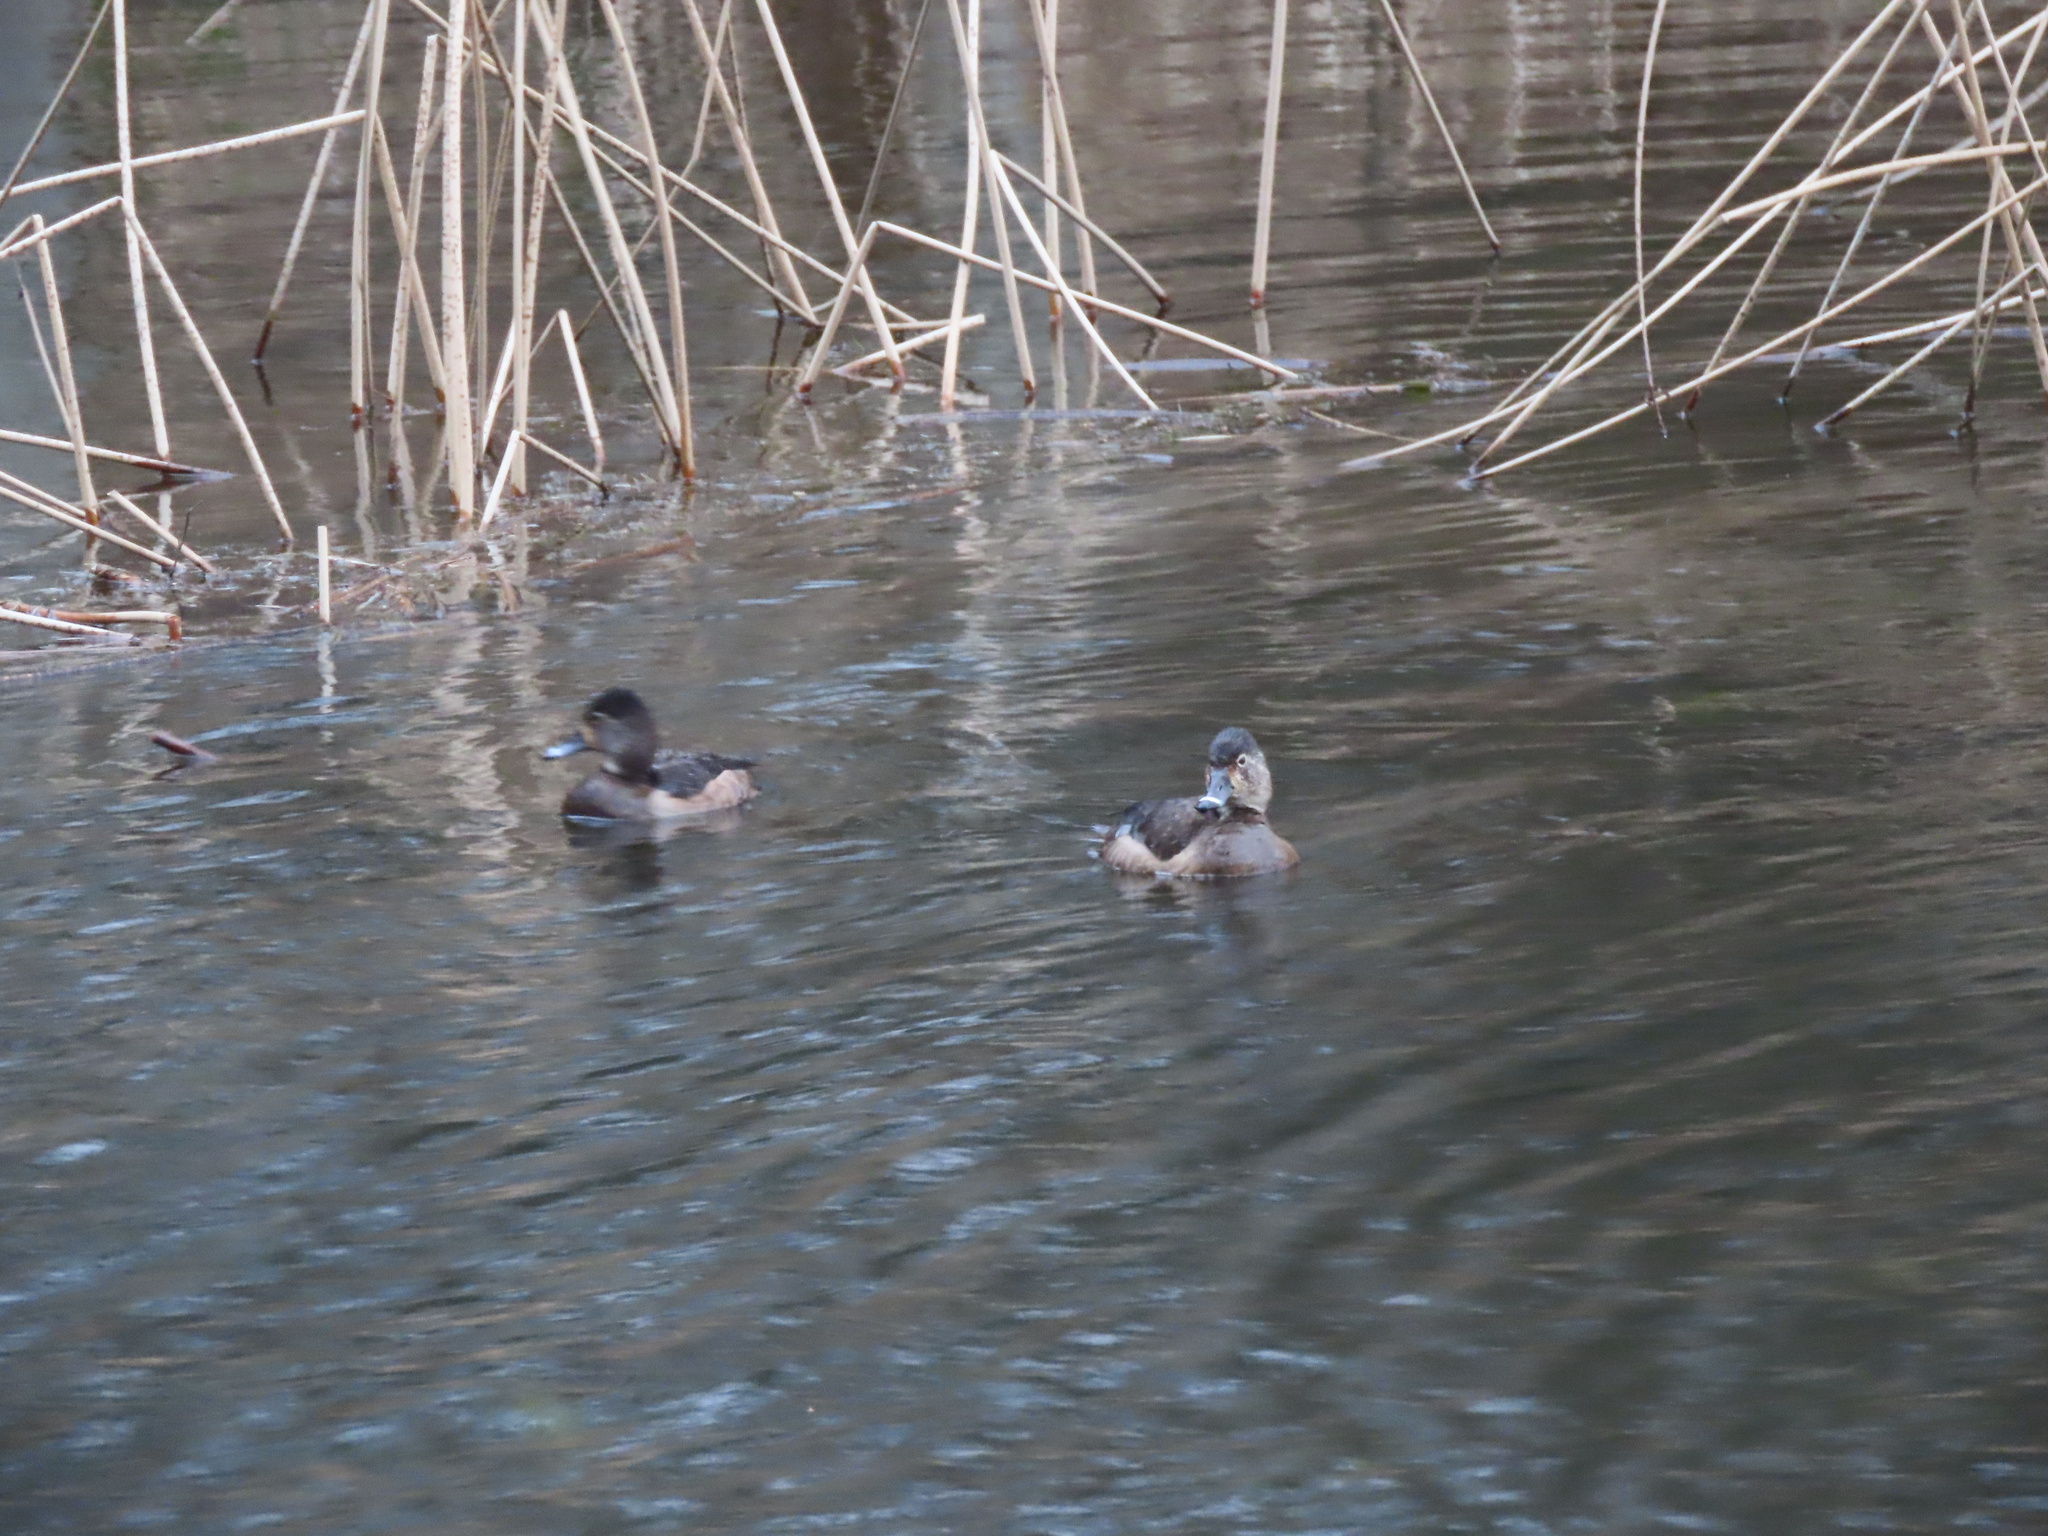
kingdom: Animalia
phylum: Chordata
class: Aves
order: Anseriformes
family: Anatidae
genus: Aythya
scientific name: Aythya collaris
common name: Ring-necked duck
